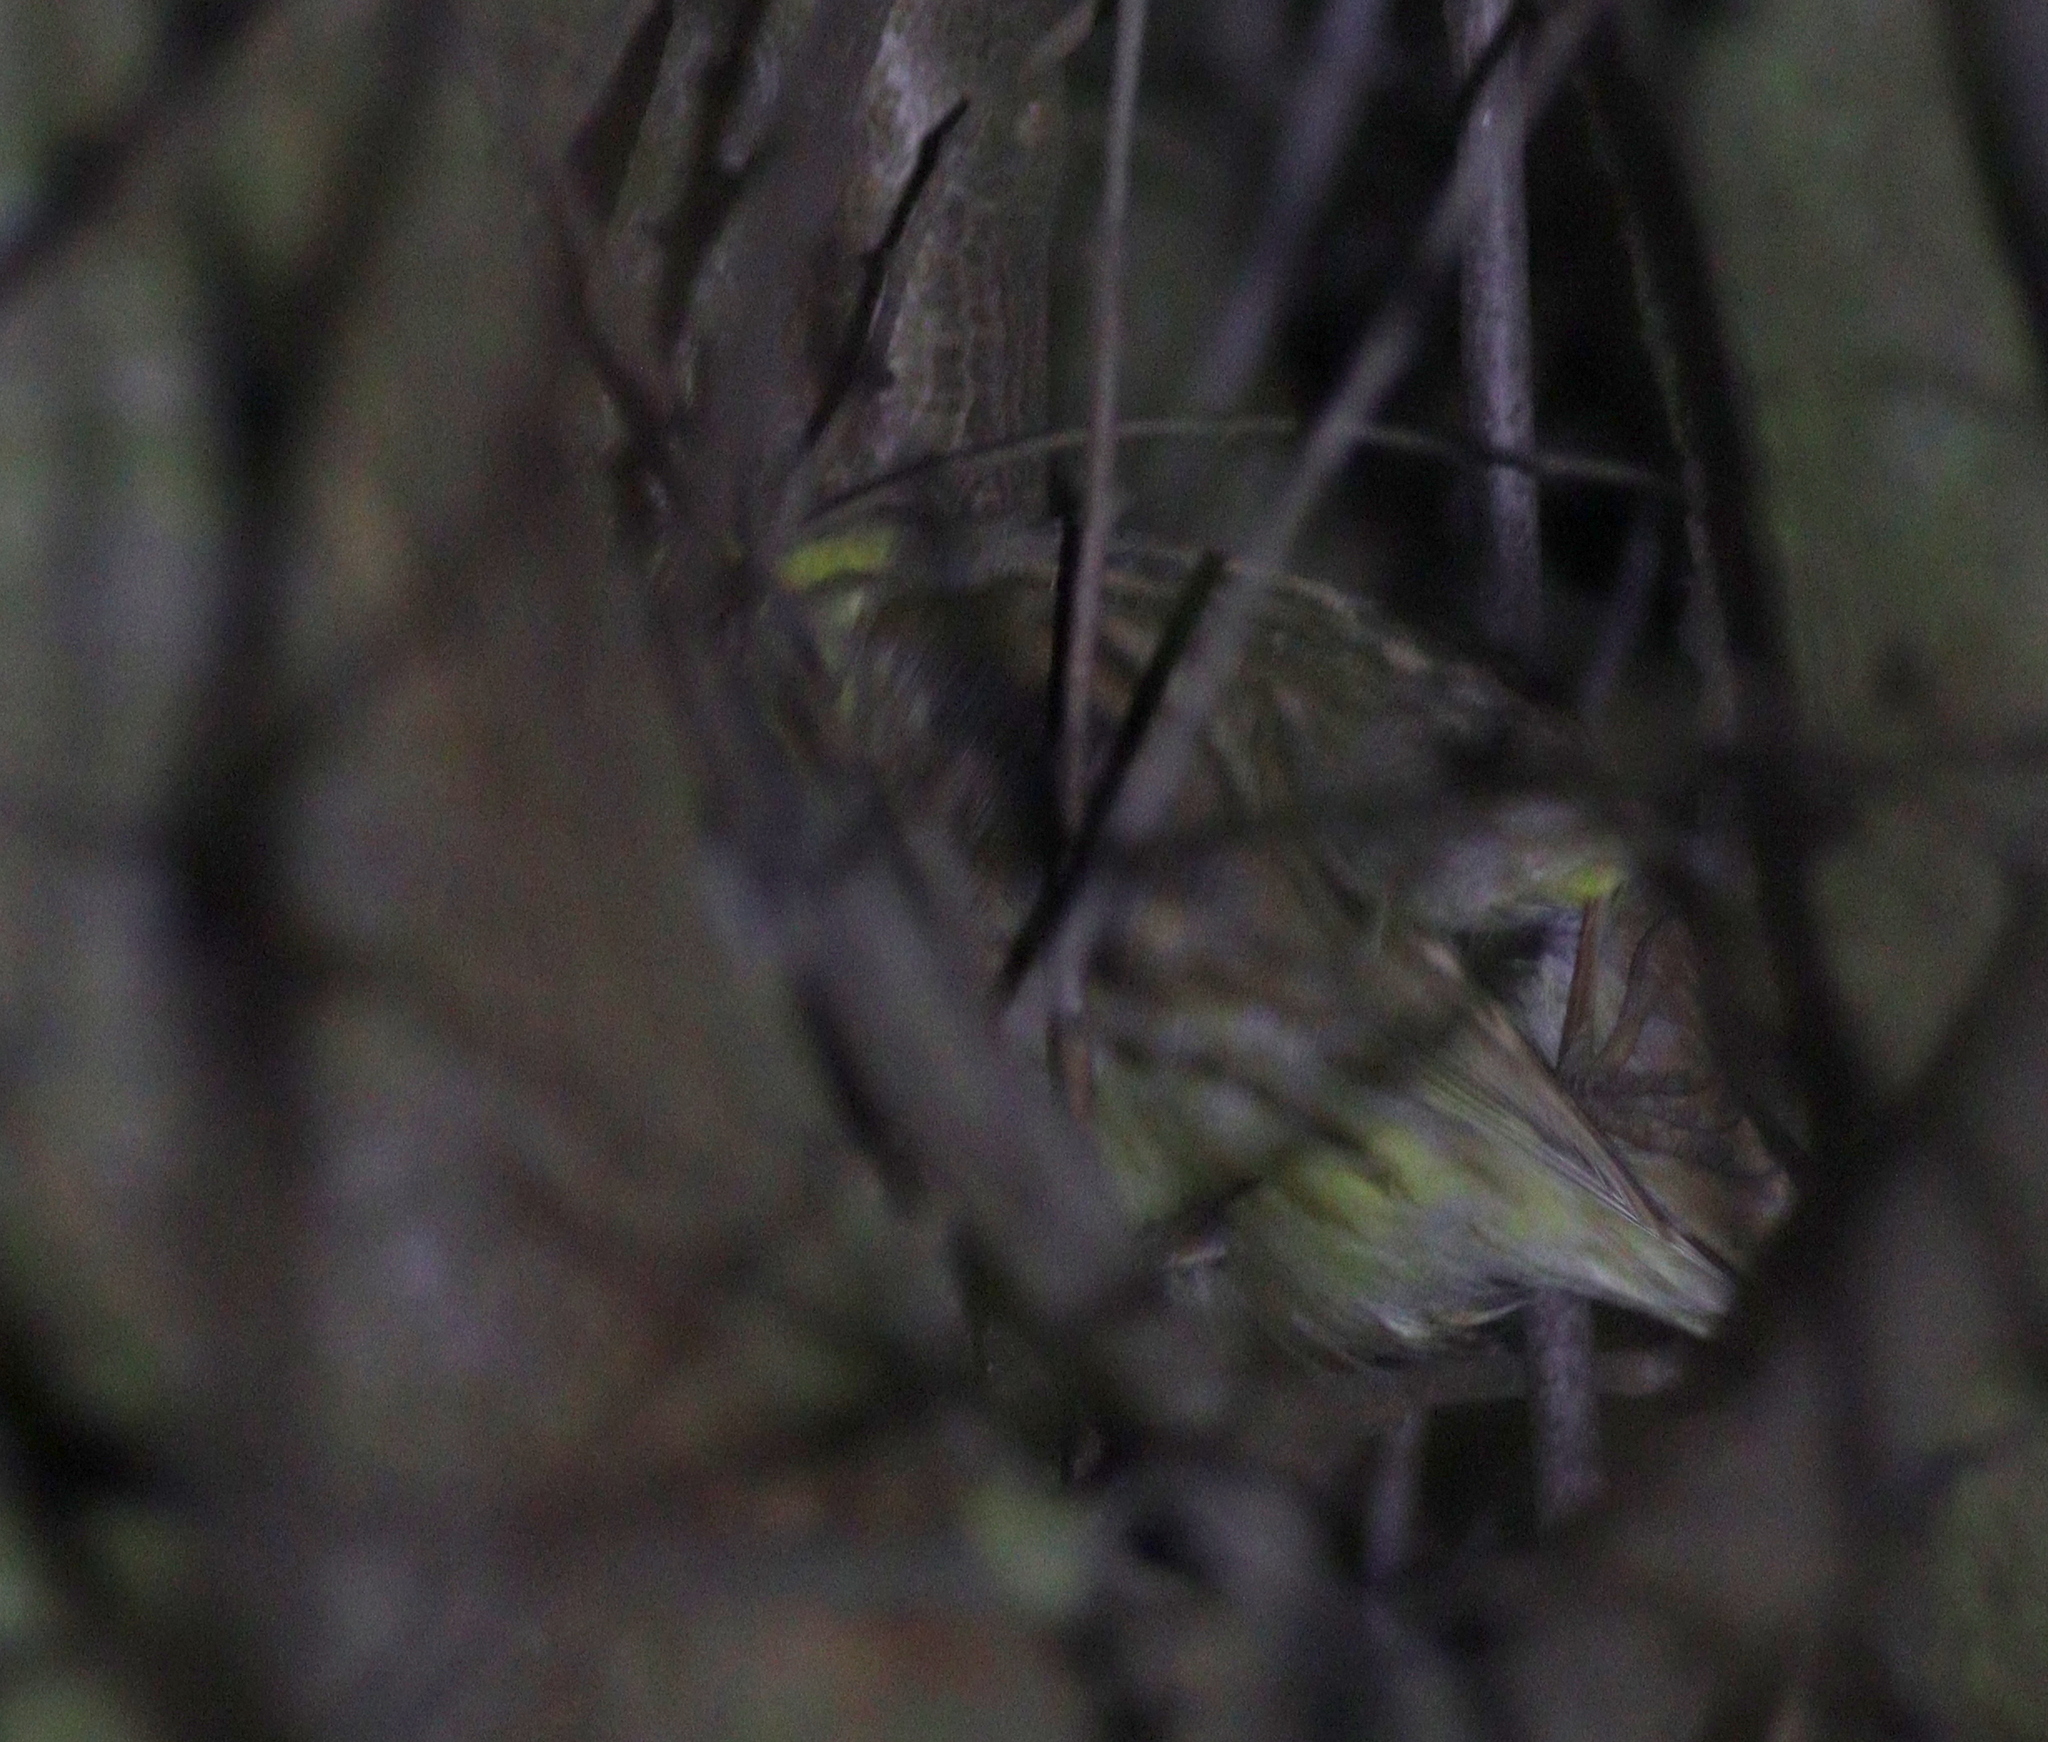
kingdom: Animalia
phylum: Chordata
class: Aves
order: Passeriformes
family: Emberizidae
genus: Emberiza
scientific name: Emberiza citrinella
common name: Yellowhammer
